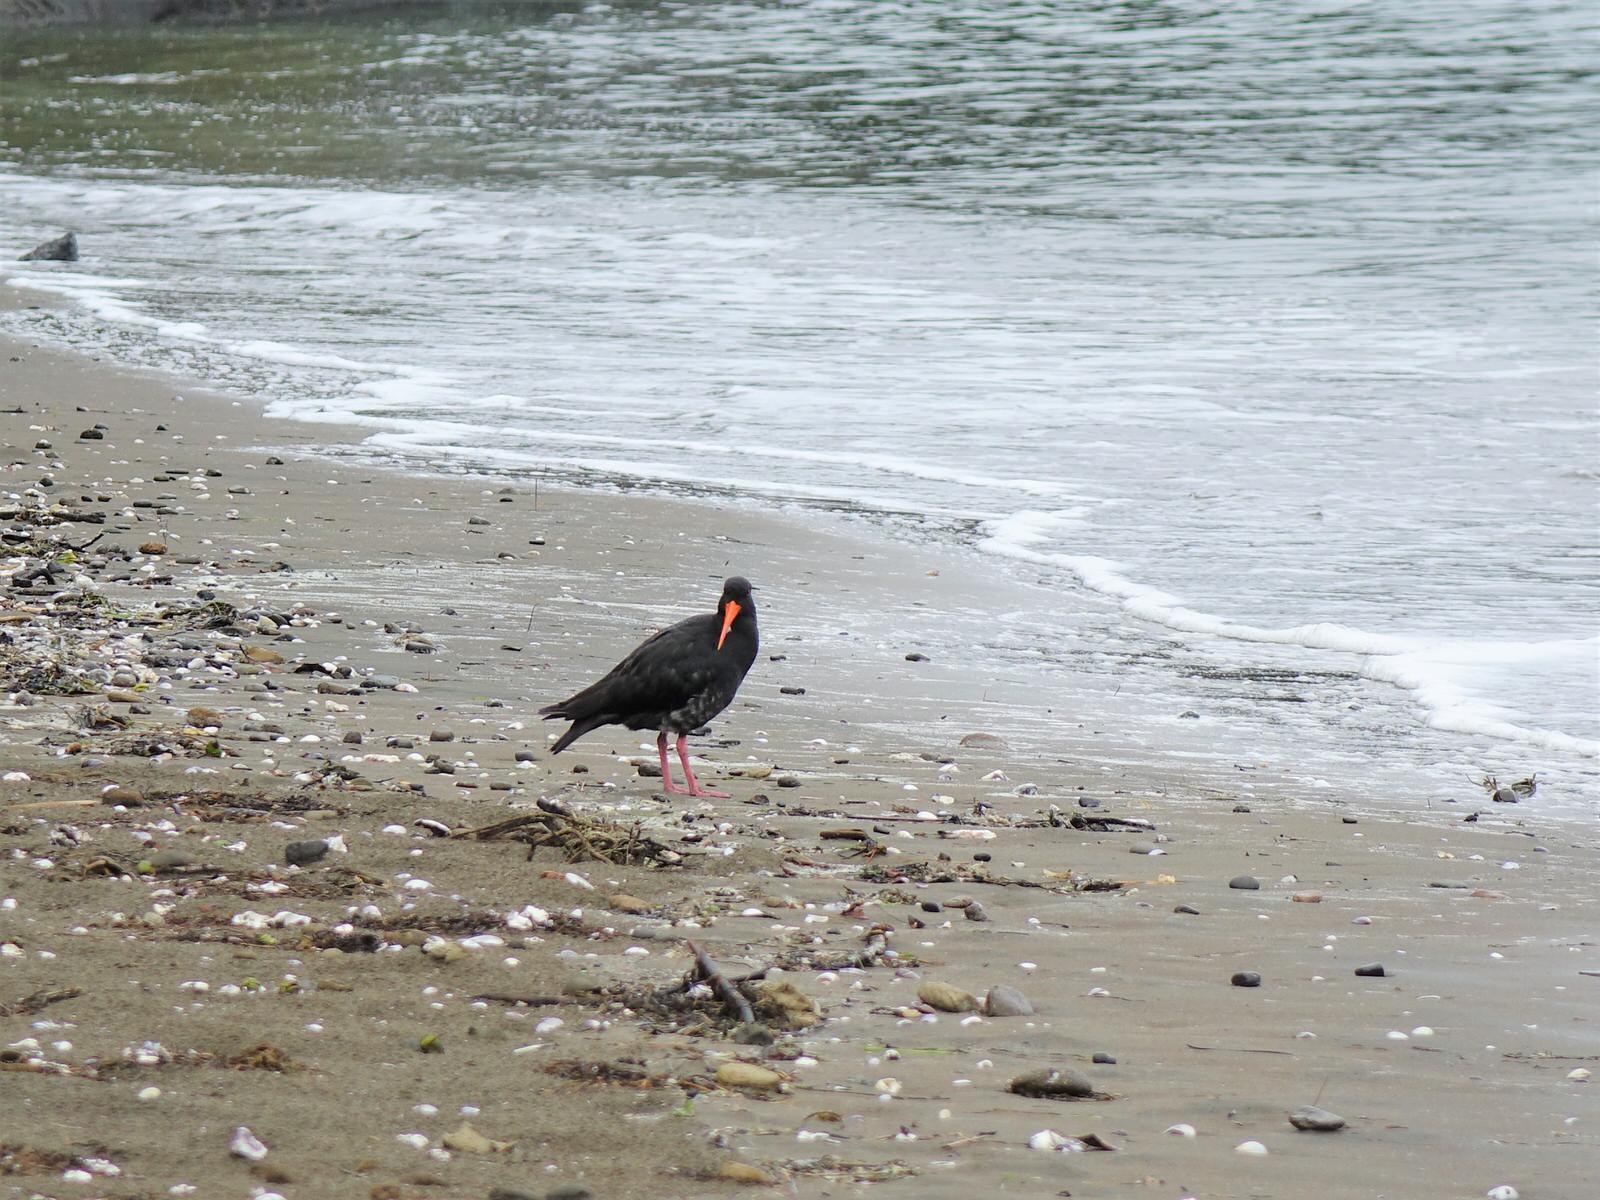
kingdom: Animalia
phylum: Chordata
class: Aves
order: Charadriiformes
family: Haematopodidae
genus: Haematopus
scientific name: Haematopus unicolor
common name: Variable oystercatcher
